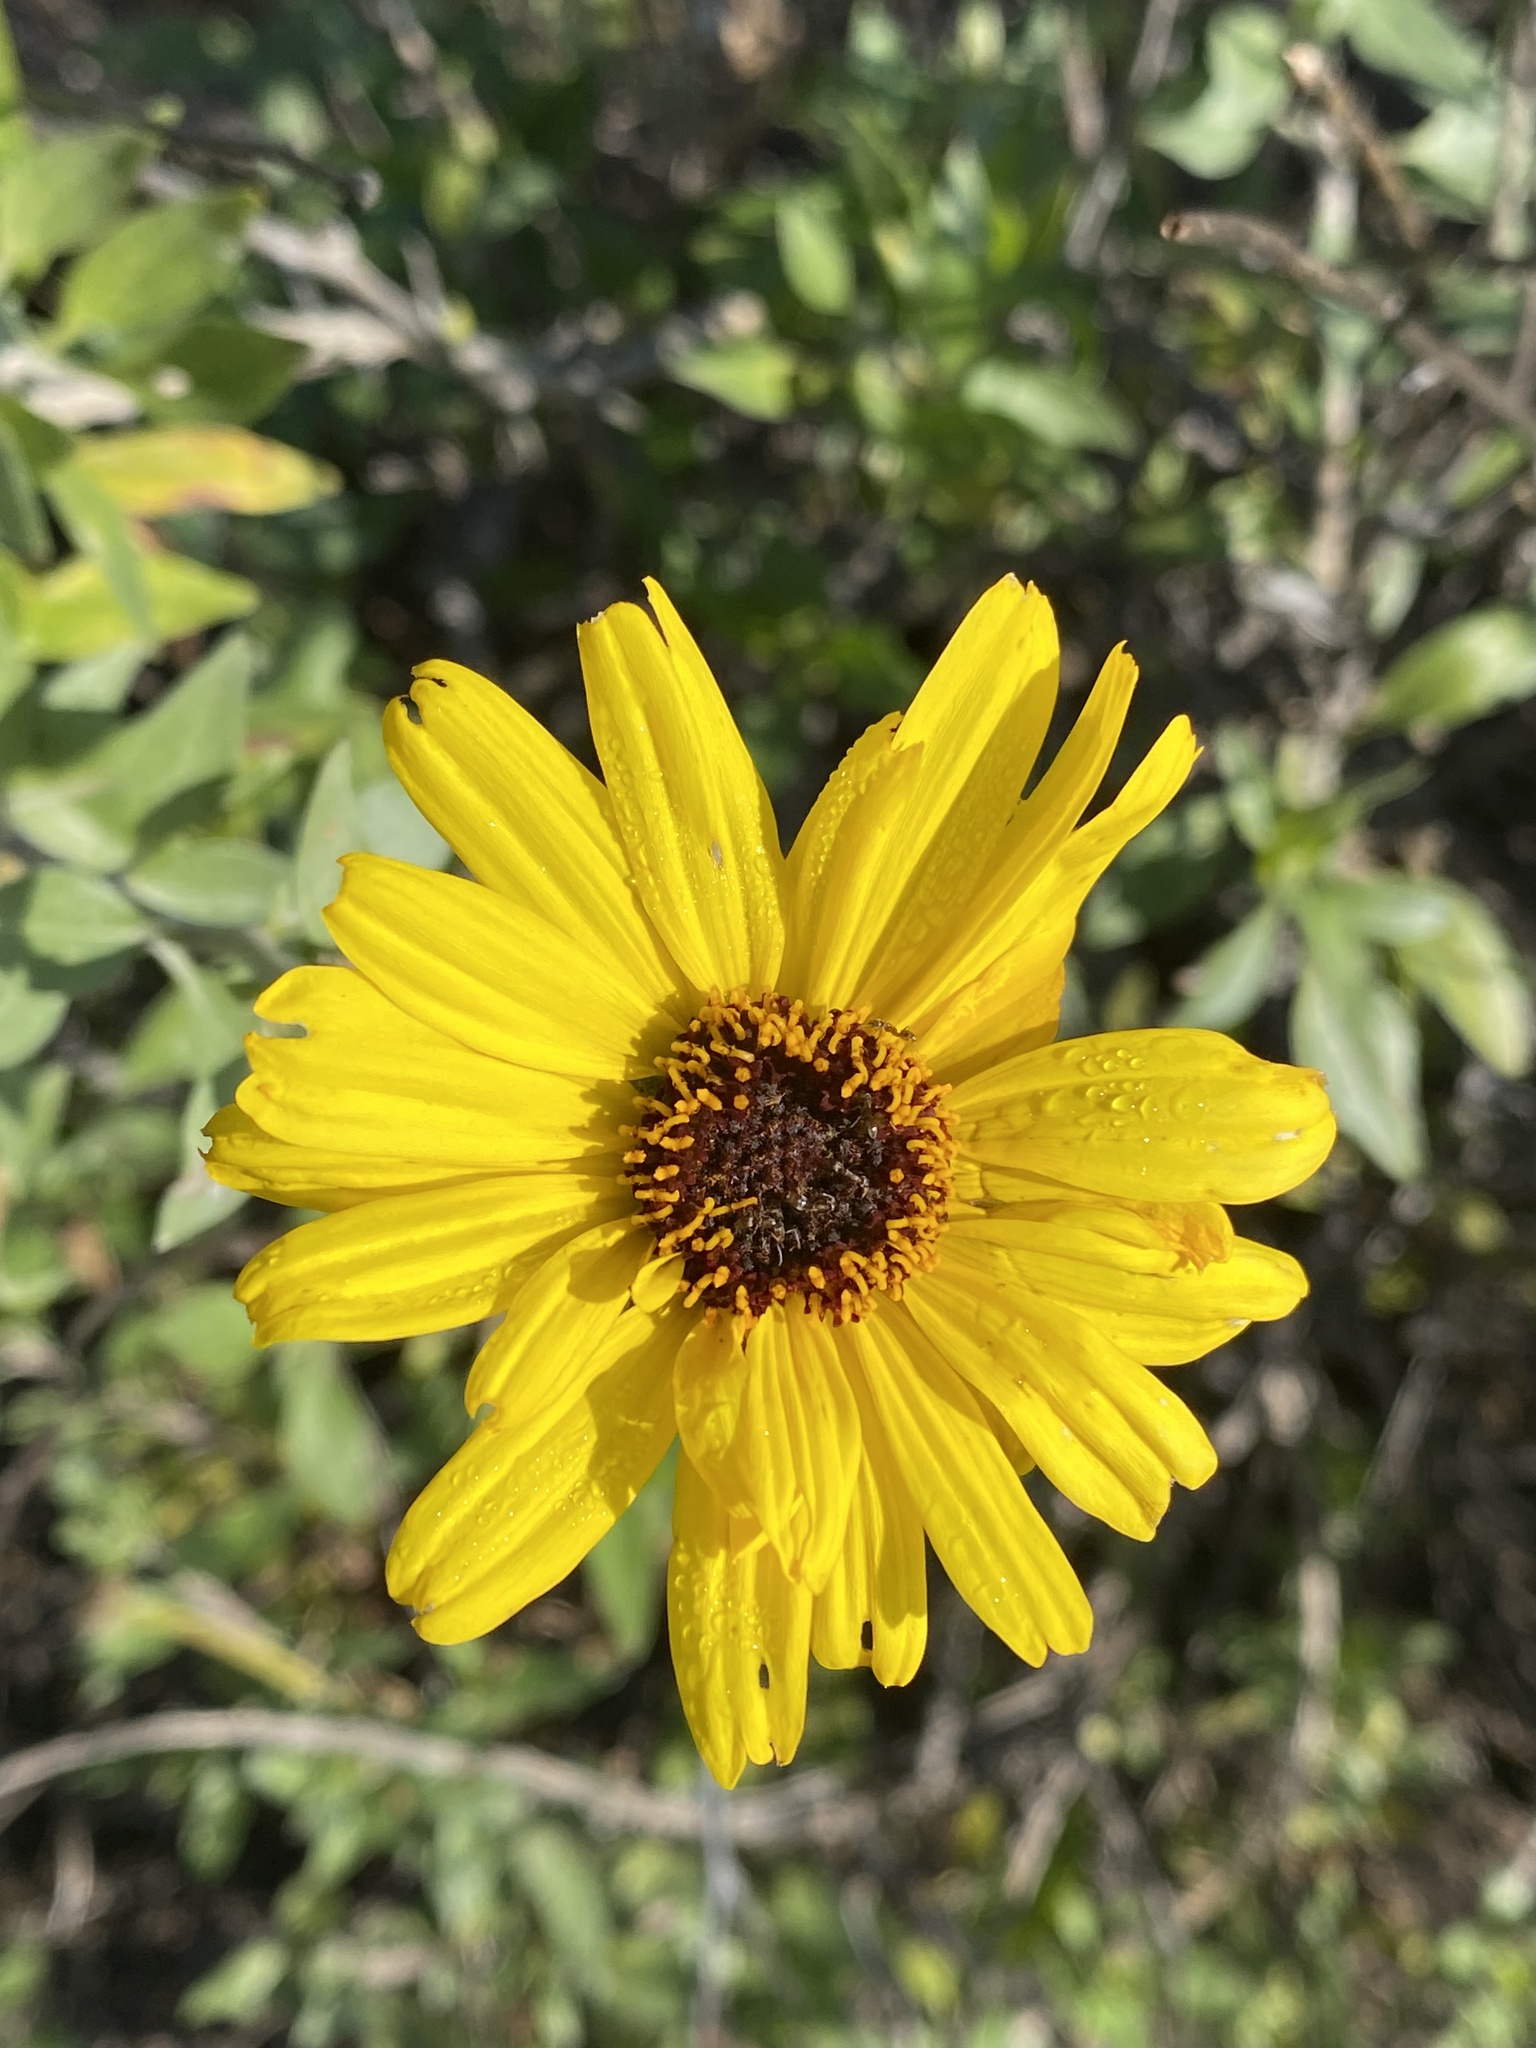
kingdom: Plantae
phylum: Tracheophyta
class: Magnoliopsida
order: Asterales
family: Asteraceae
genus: Encelia
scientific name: Encelia californica
